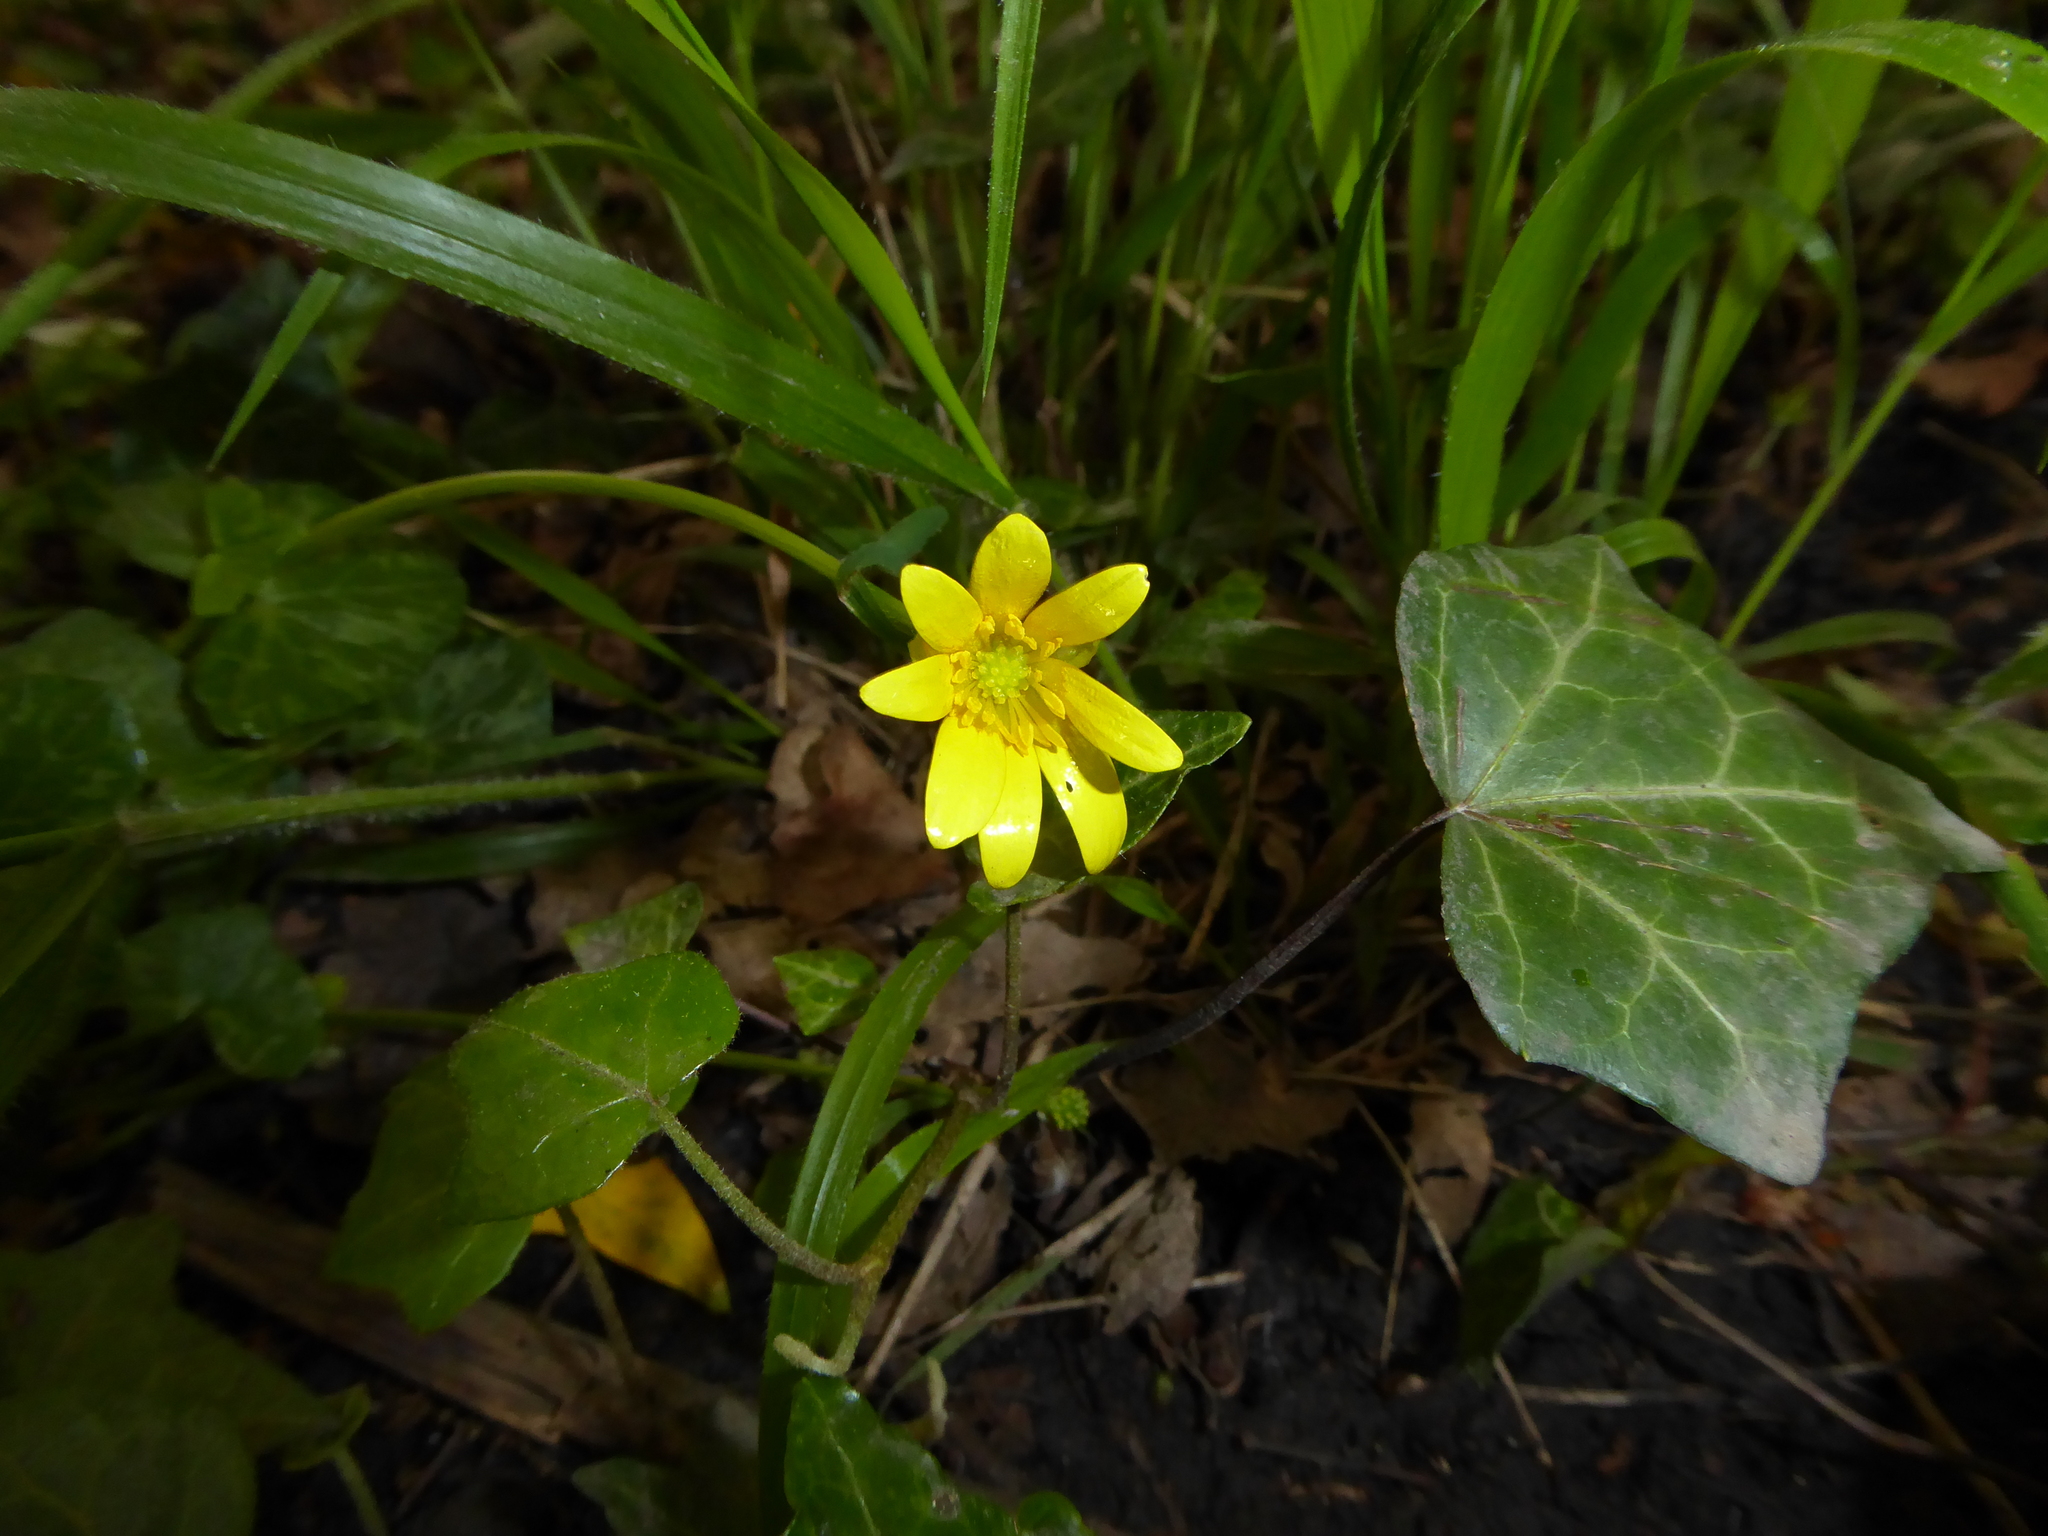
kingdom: Plantae
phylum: Tracheophyta
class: Magnoliopsida
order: Ranunculales
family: Ranunculaceae
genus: Ficaria
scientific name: Ficaria verna
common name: Lesser celandine
